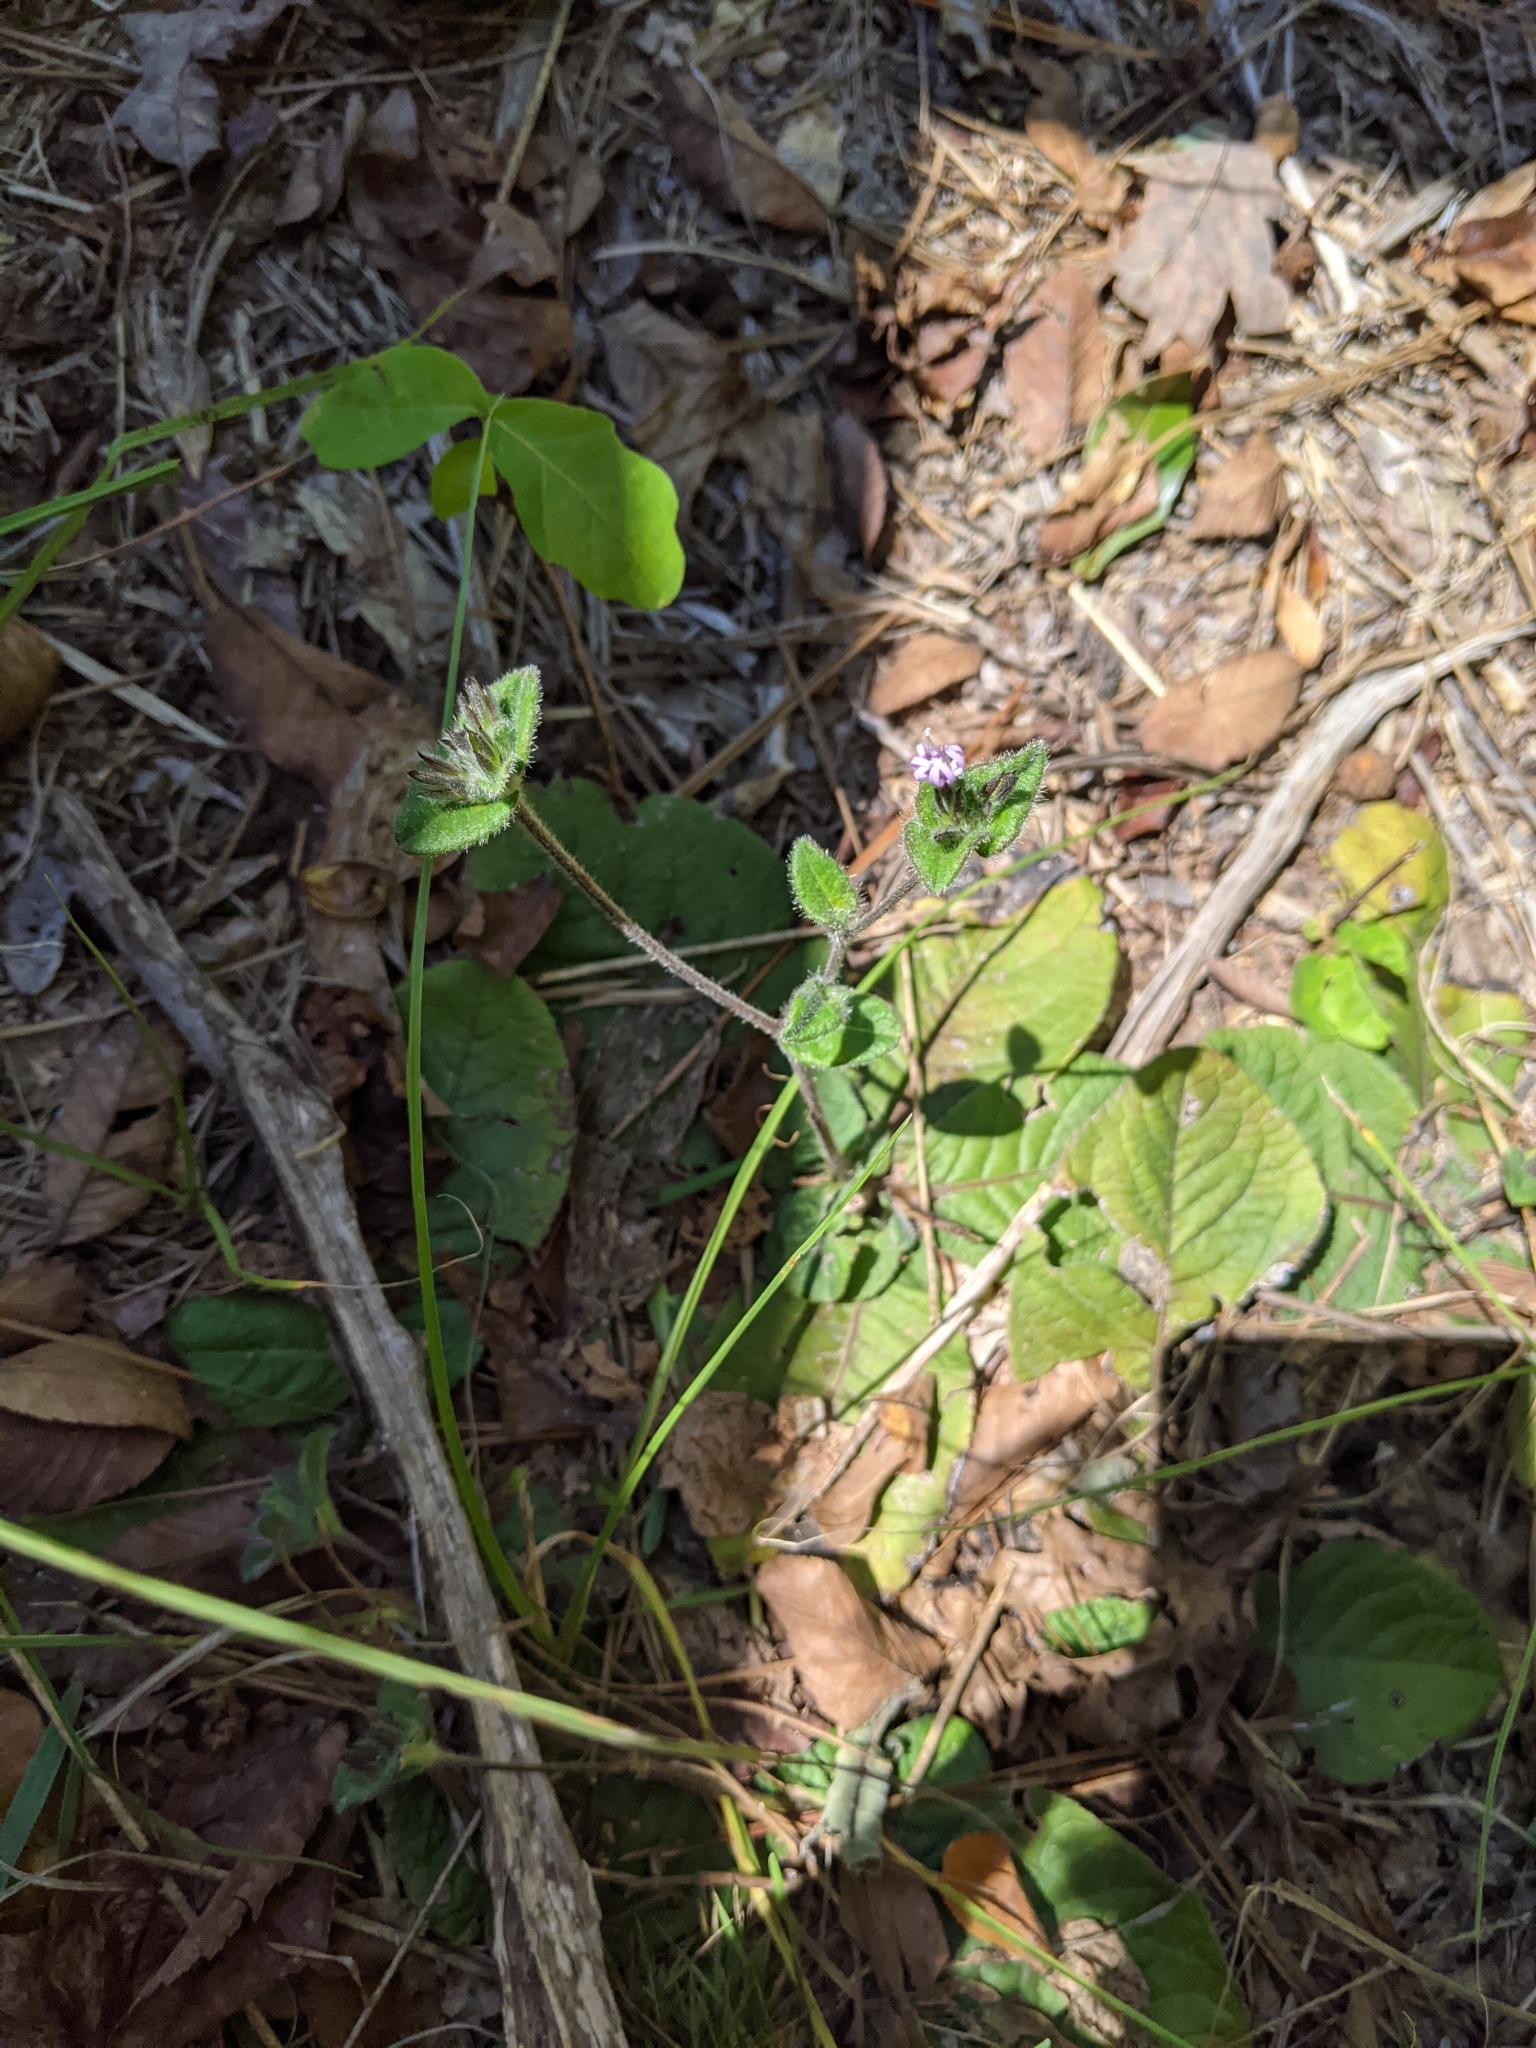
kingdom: Plantae
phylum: Tracheophyta
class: Magnoliopsida
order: Asterales
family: Asteraceae
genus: Elephantopus
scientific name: Elephantopus tomentosus
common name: Tobacco-weed
